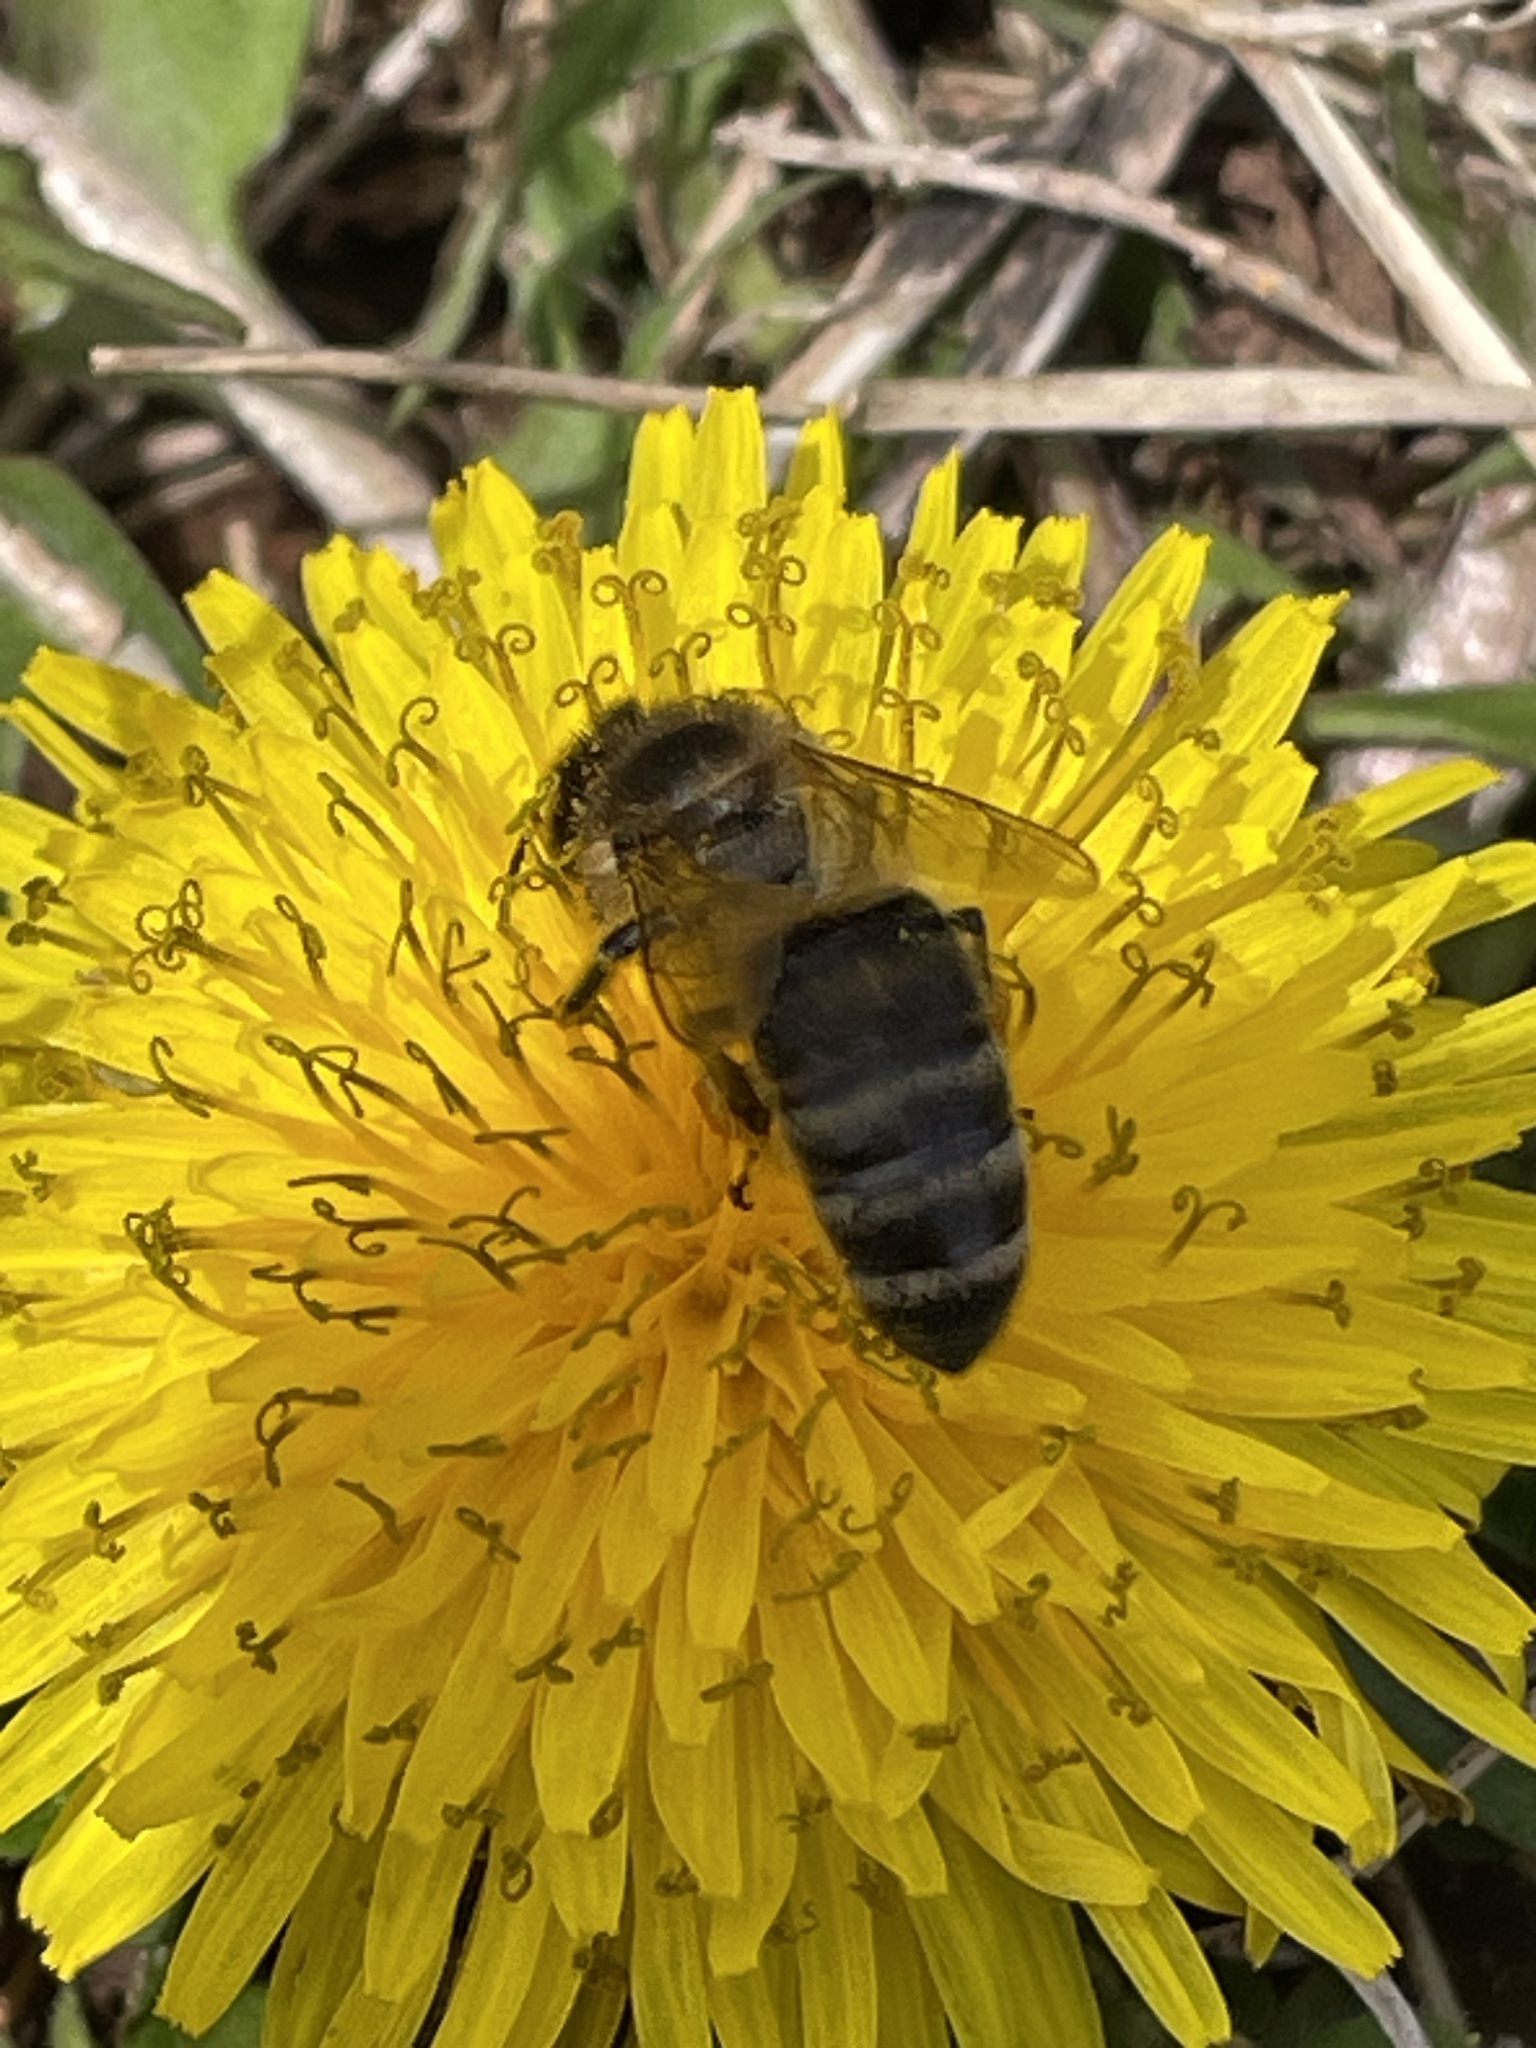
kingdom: Animalia
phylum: Arthropoda
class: Insecta
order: Hymenoptera
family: Apidae
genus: Apis
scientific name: Apis mellifera
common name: Honey bee
